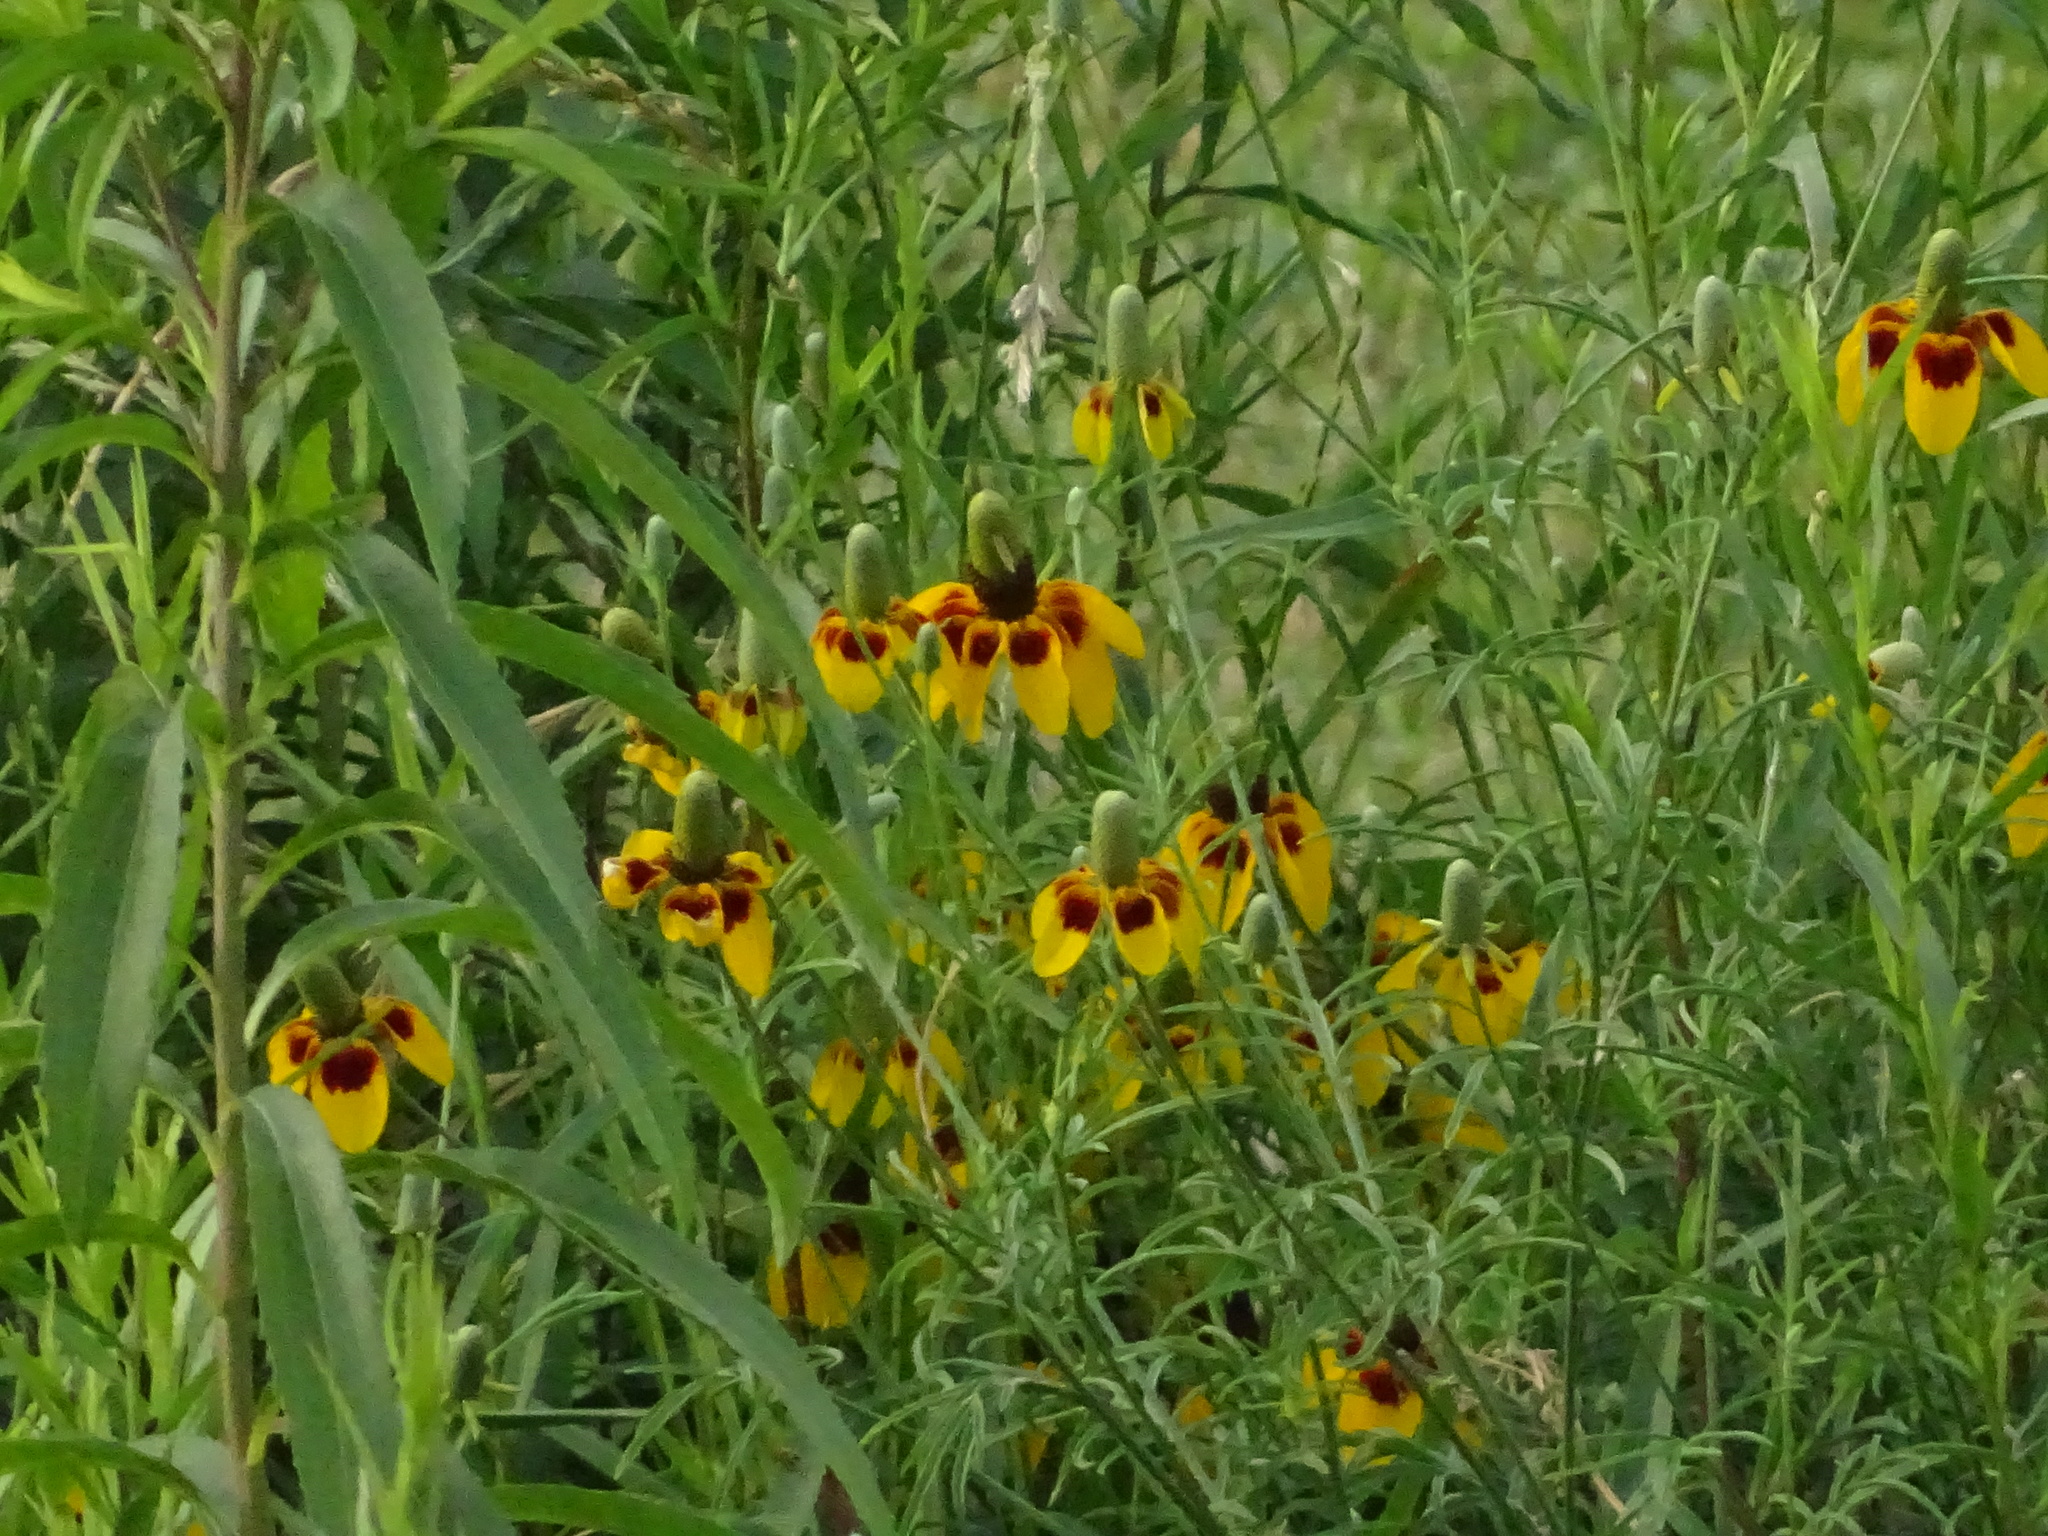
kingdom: Plantae
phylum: Tracheophyta
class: Magnoliopsida
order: Asterales
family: Asteraceae
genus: Ratibida
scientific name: Ratibida columnifera
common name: Prairie coneflower
